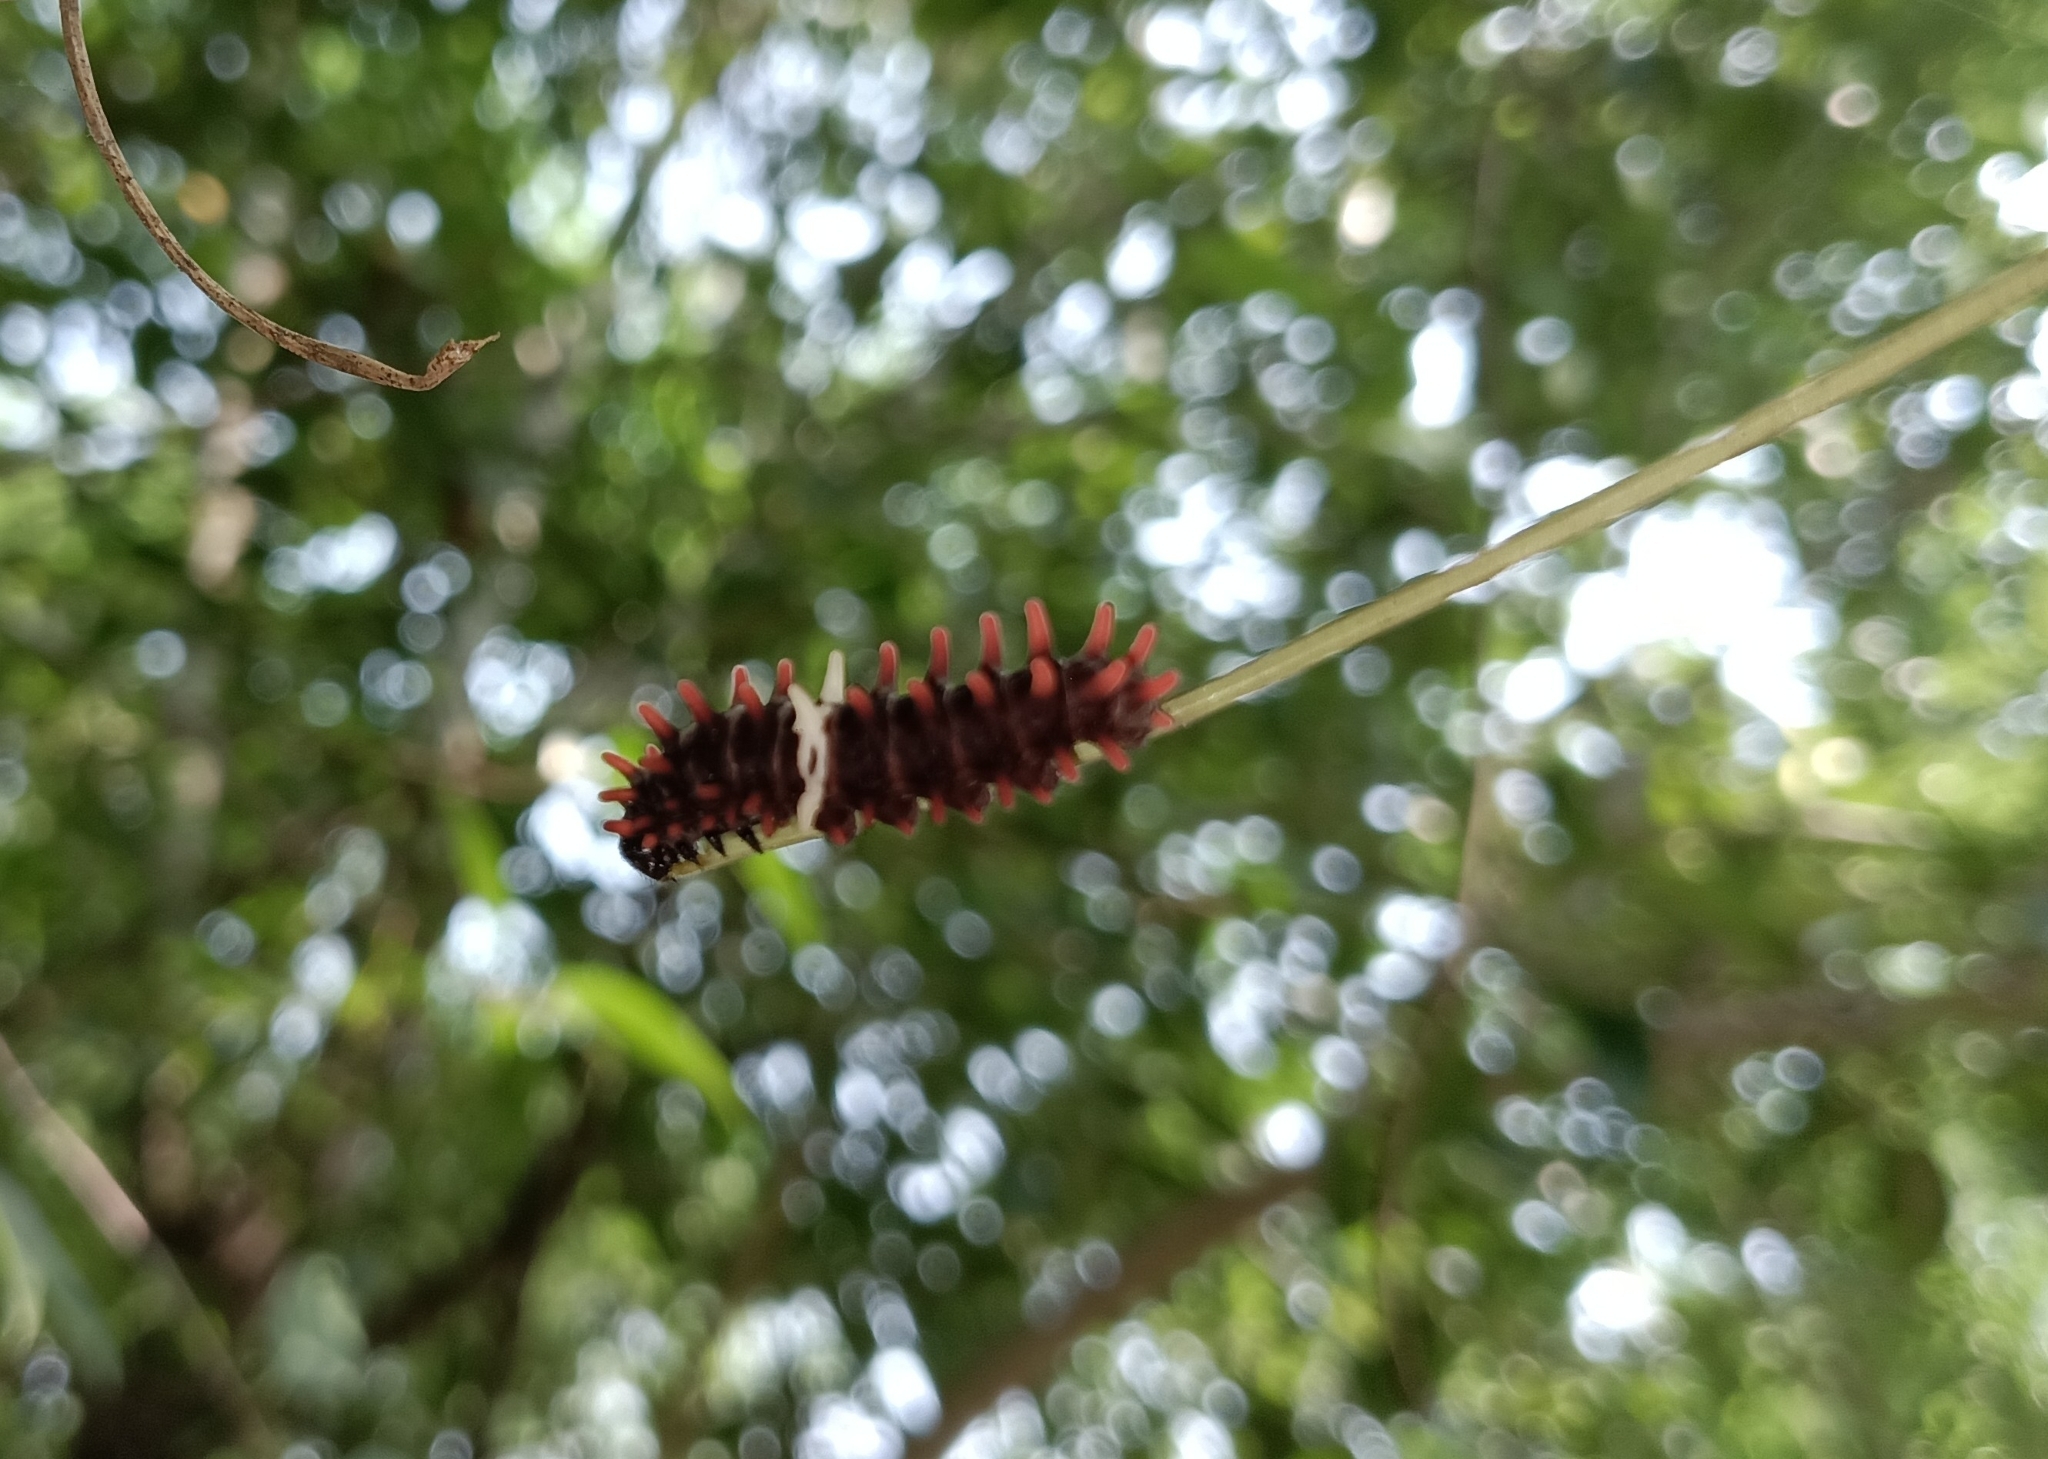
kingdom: Animalia
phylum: Arthropoda
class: Insecta
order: Lepidoptera
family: Papilionidae
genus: Pachliopta
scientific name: Pachliopta aristolochiae
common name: Common rose
